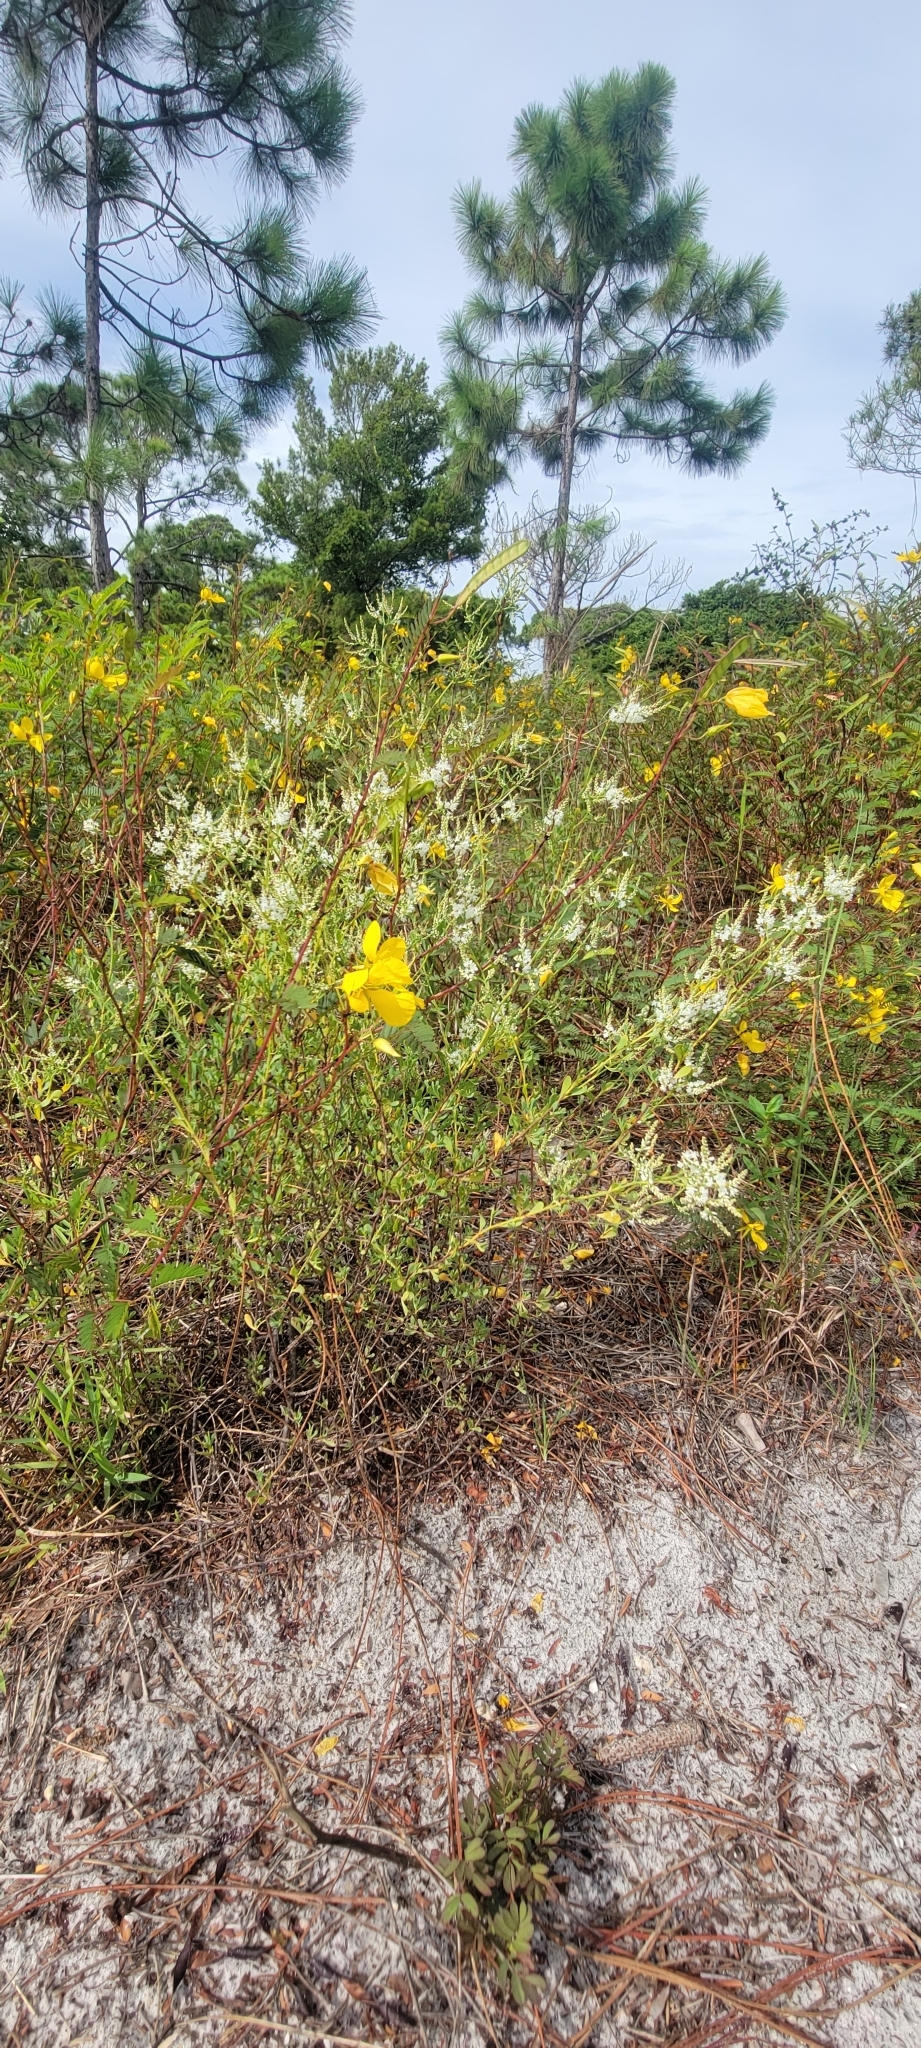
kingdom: Plantae
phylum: Tracheophyta
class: Magnoliopsida
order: Caryophyllales
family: Polygonaceae
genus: Polygonella
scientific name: Polygonella polygama
